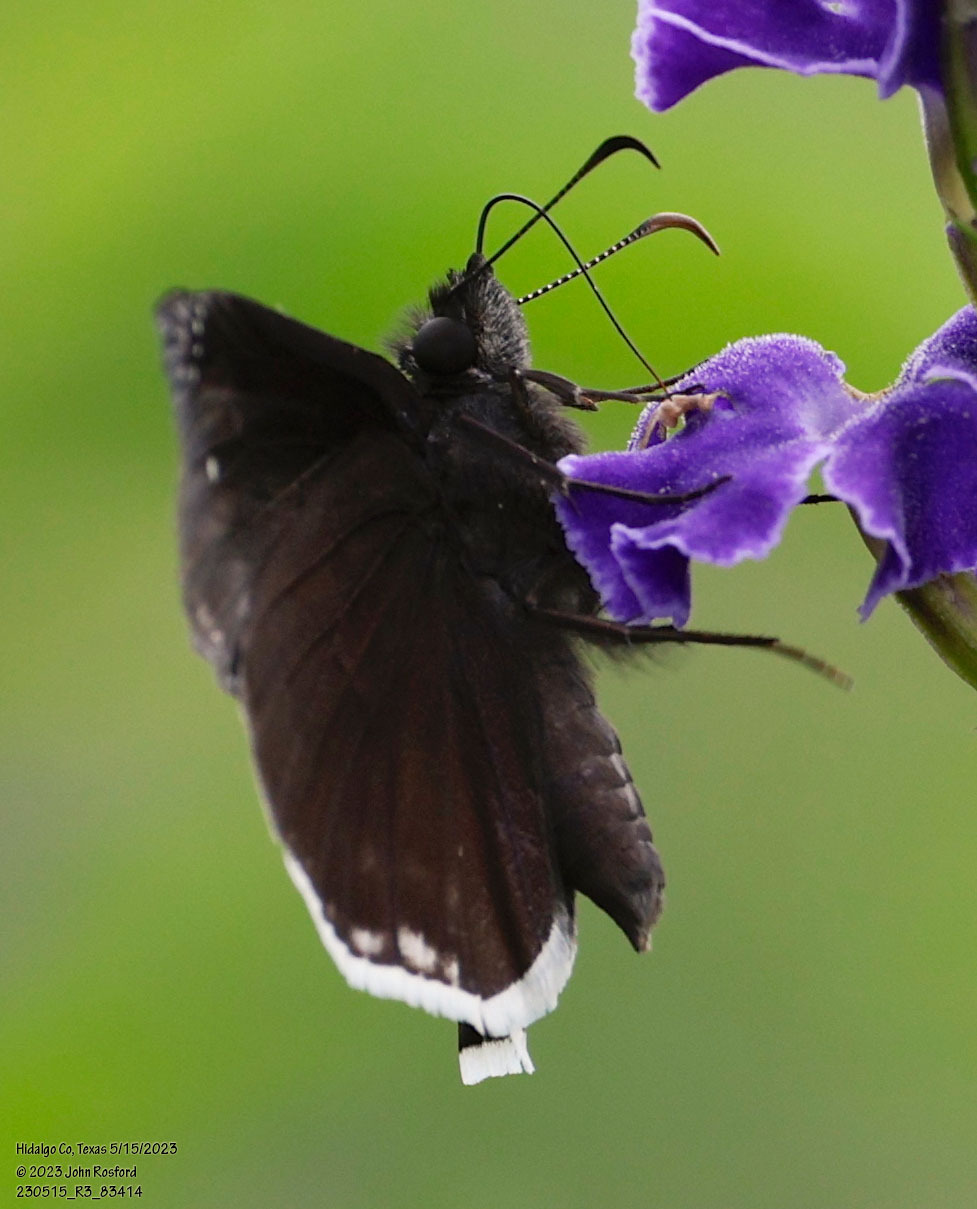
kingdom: Animalia
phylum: Arthropoda
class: Insecta
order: Lepidoptera
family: Hesperiidae
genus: Erynnis
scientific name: Erynnis tristis
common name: Mournful duskywing
